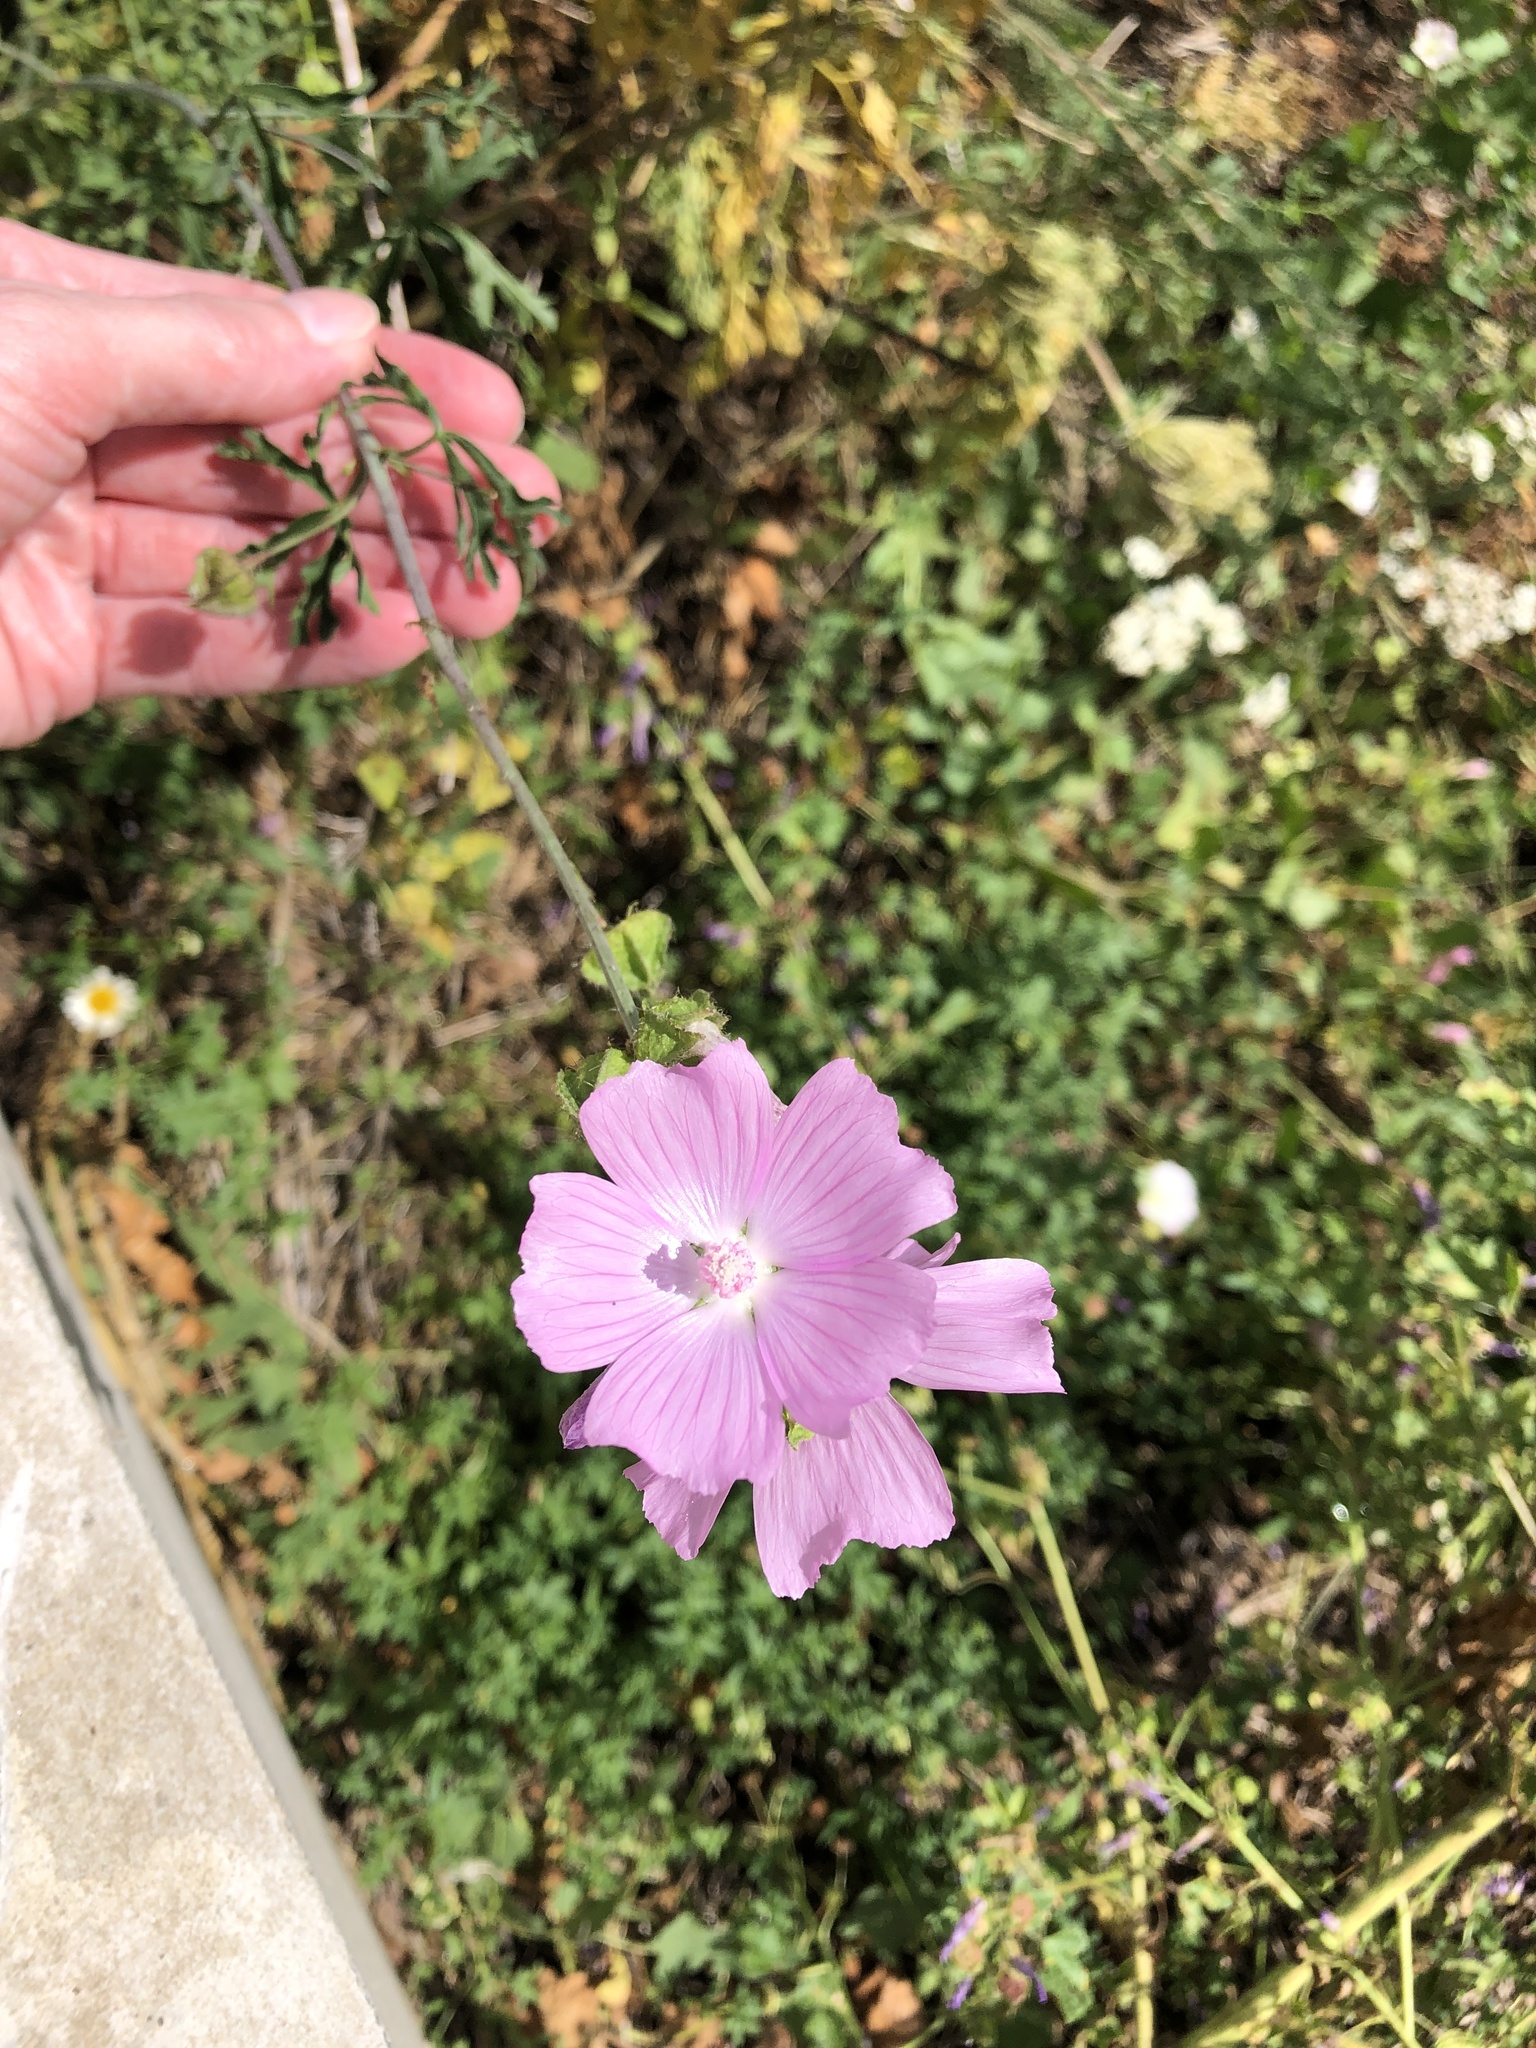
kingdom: Plantae
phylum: Tracheophyta
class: Magnoliopsida
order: Malvales
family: Malvaceae
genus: Malva
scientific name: Malva moschata
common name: Musk mallow
